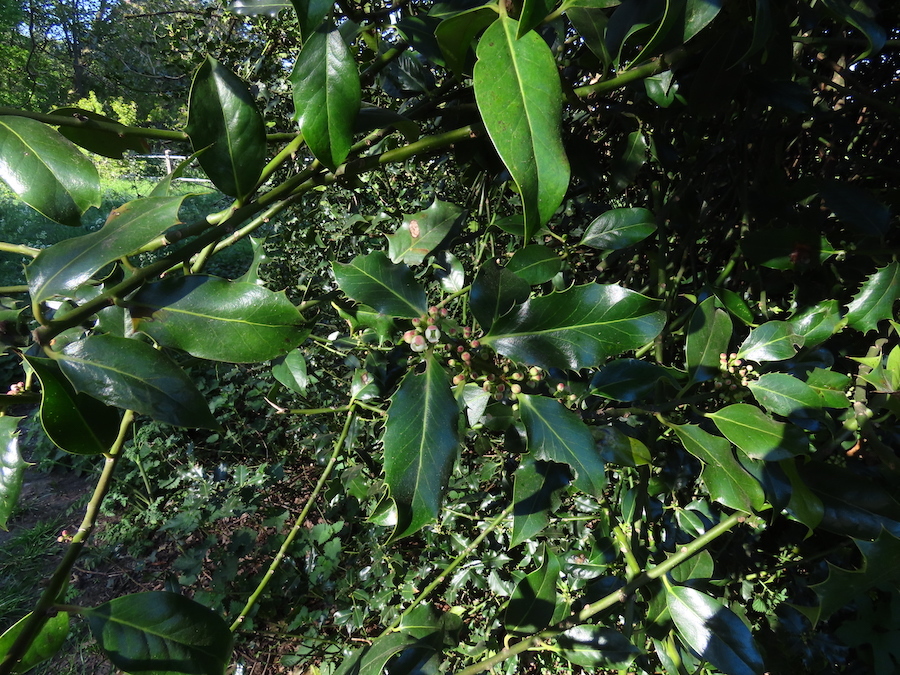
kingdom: Plantae
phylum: Tracheophyta
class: Magnoliopsida
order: Aquifoliales
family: Aquifoliaceae
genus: Ilex
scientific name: Ilex aquifolium
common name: English holly
